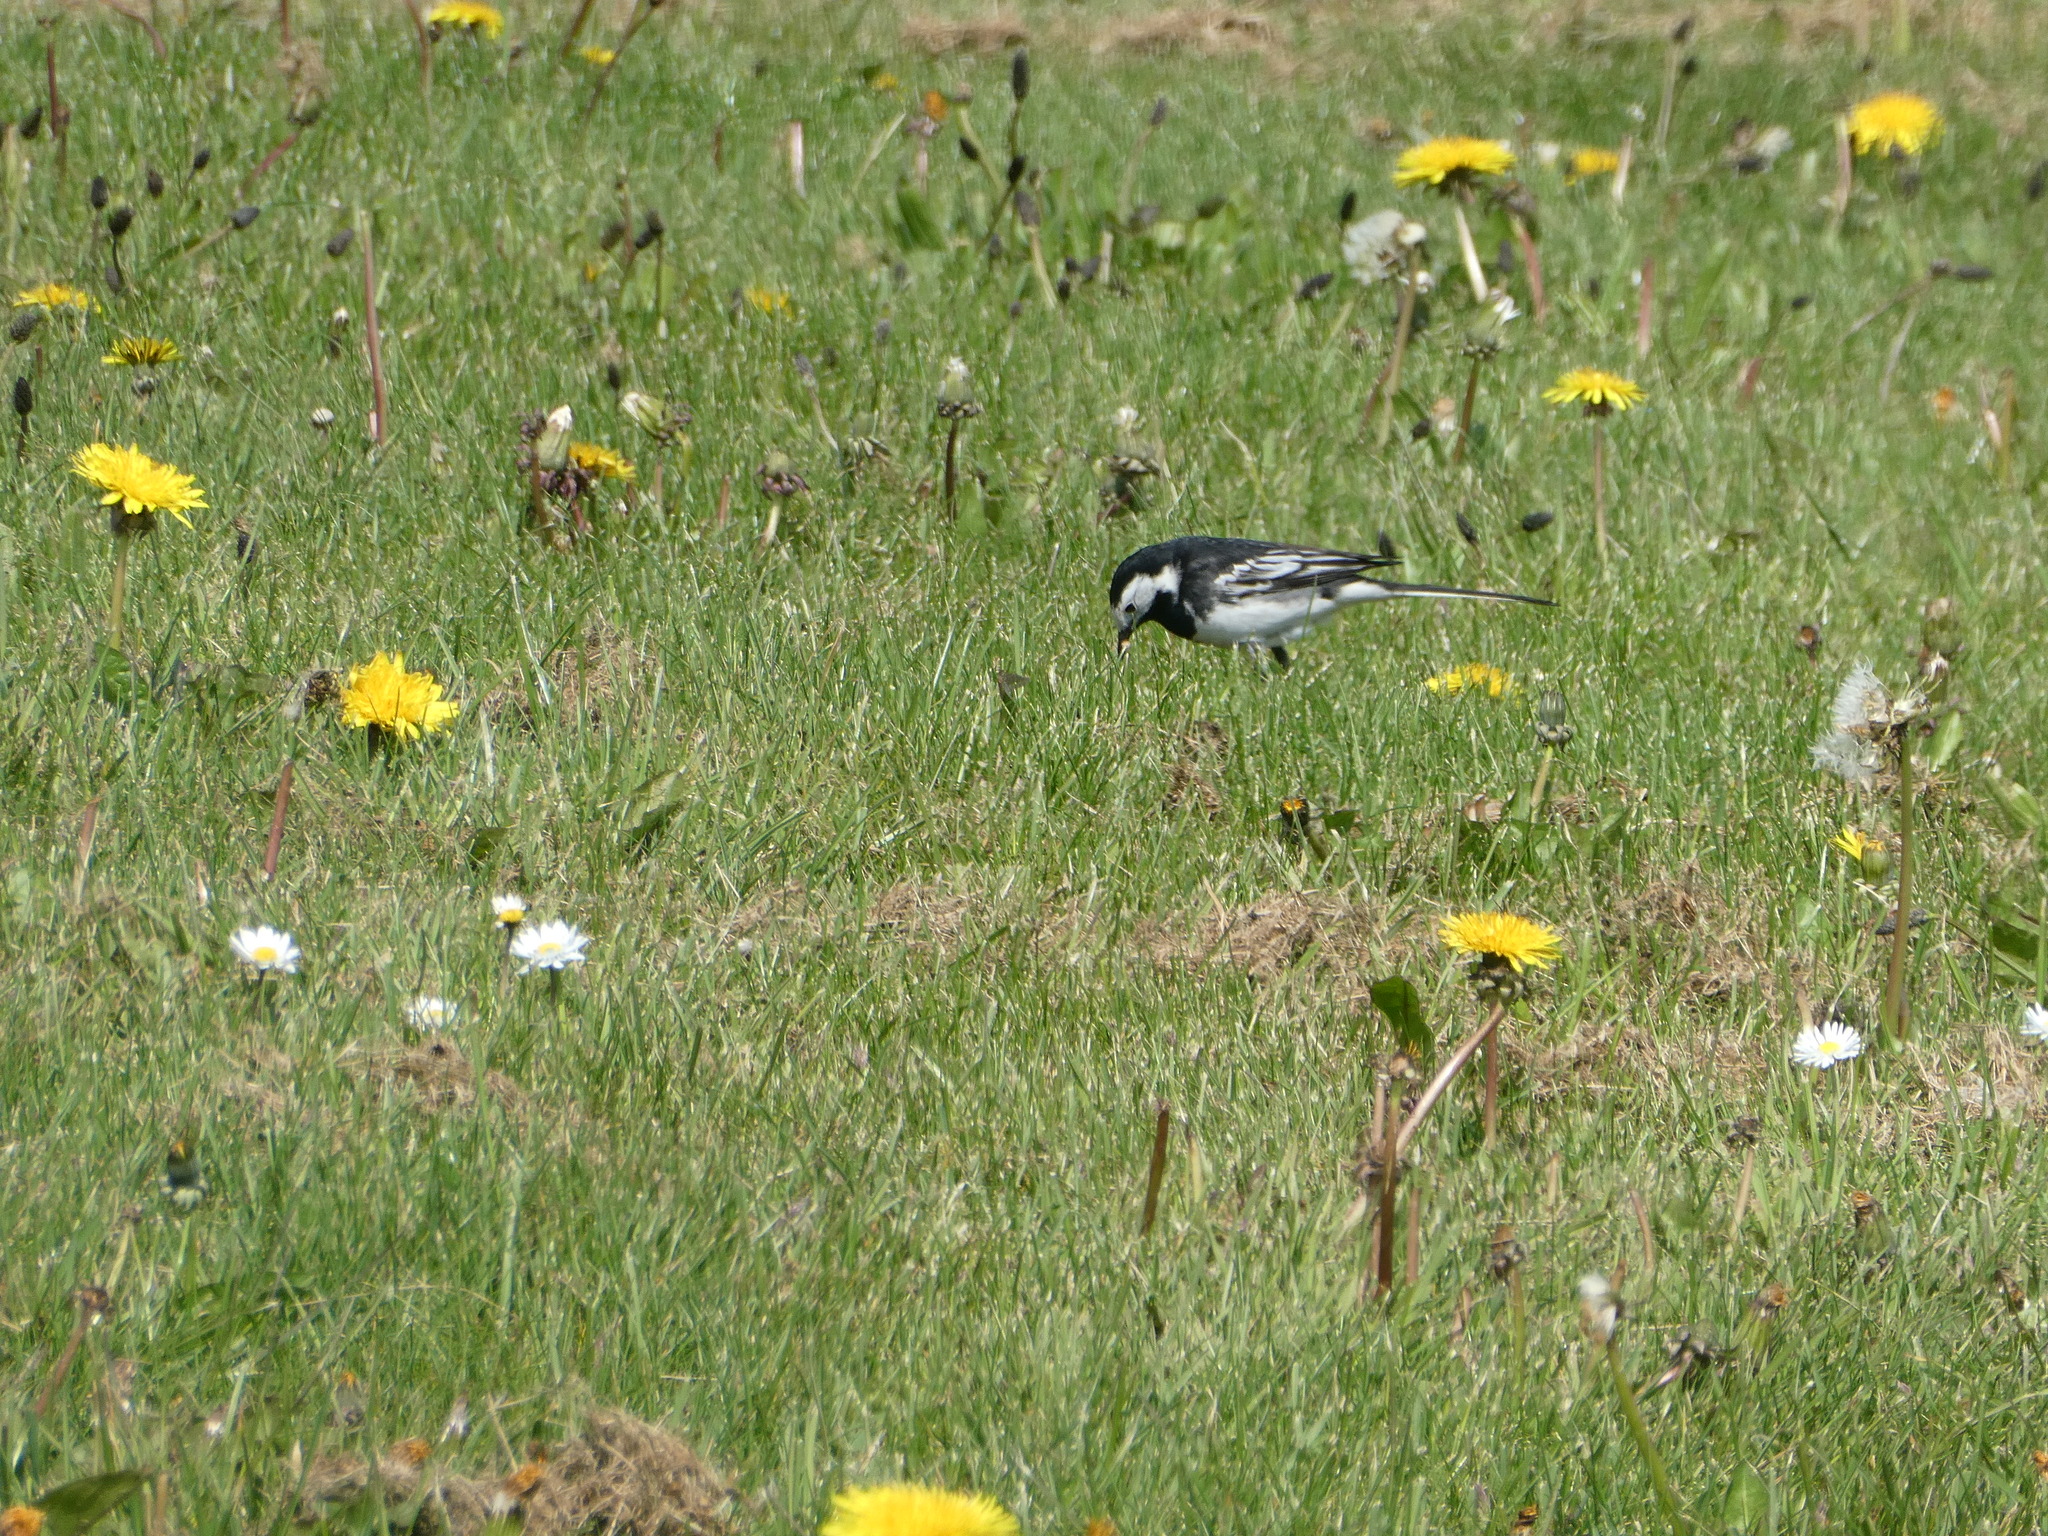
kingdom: Animalia
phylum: Chordata
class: Aves
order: Passeriformes
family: Motacillidae
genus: Motacilla
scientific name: Motacilla alba
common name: White wagtail
